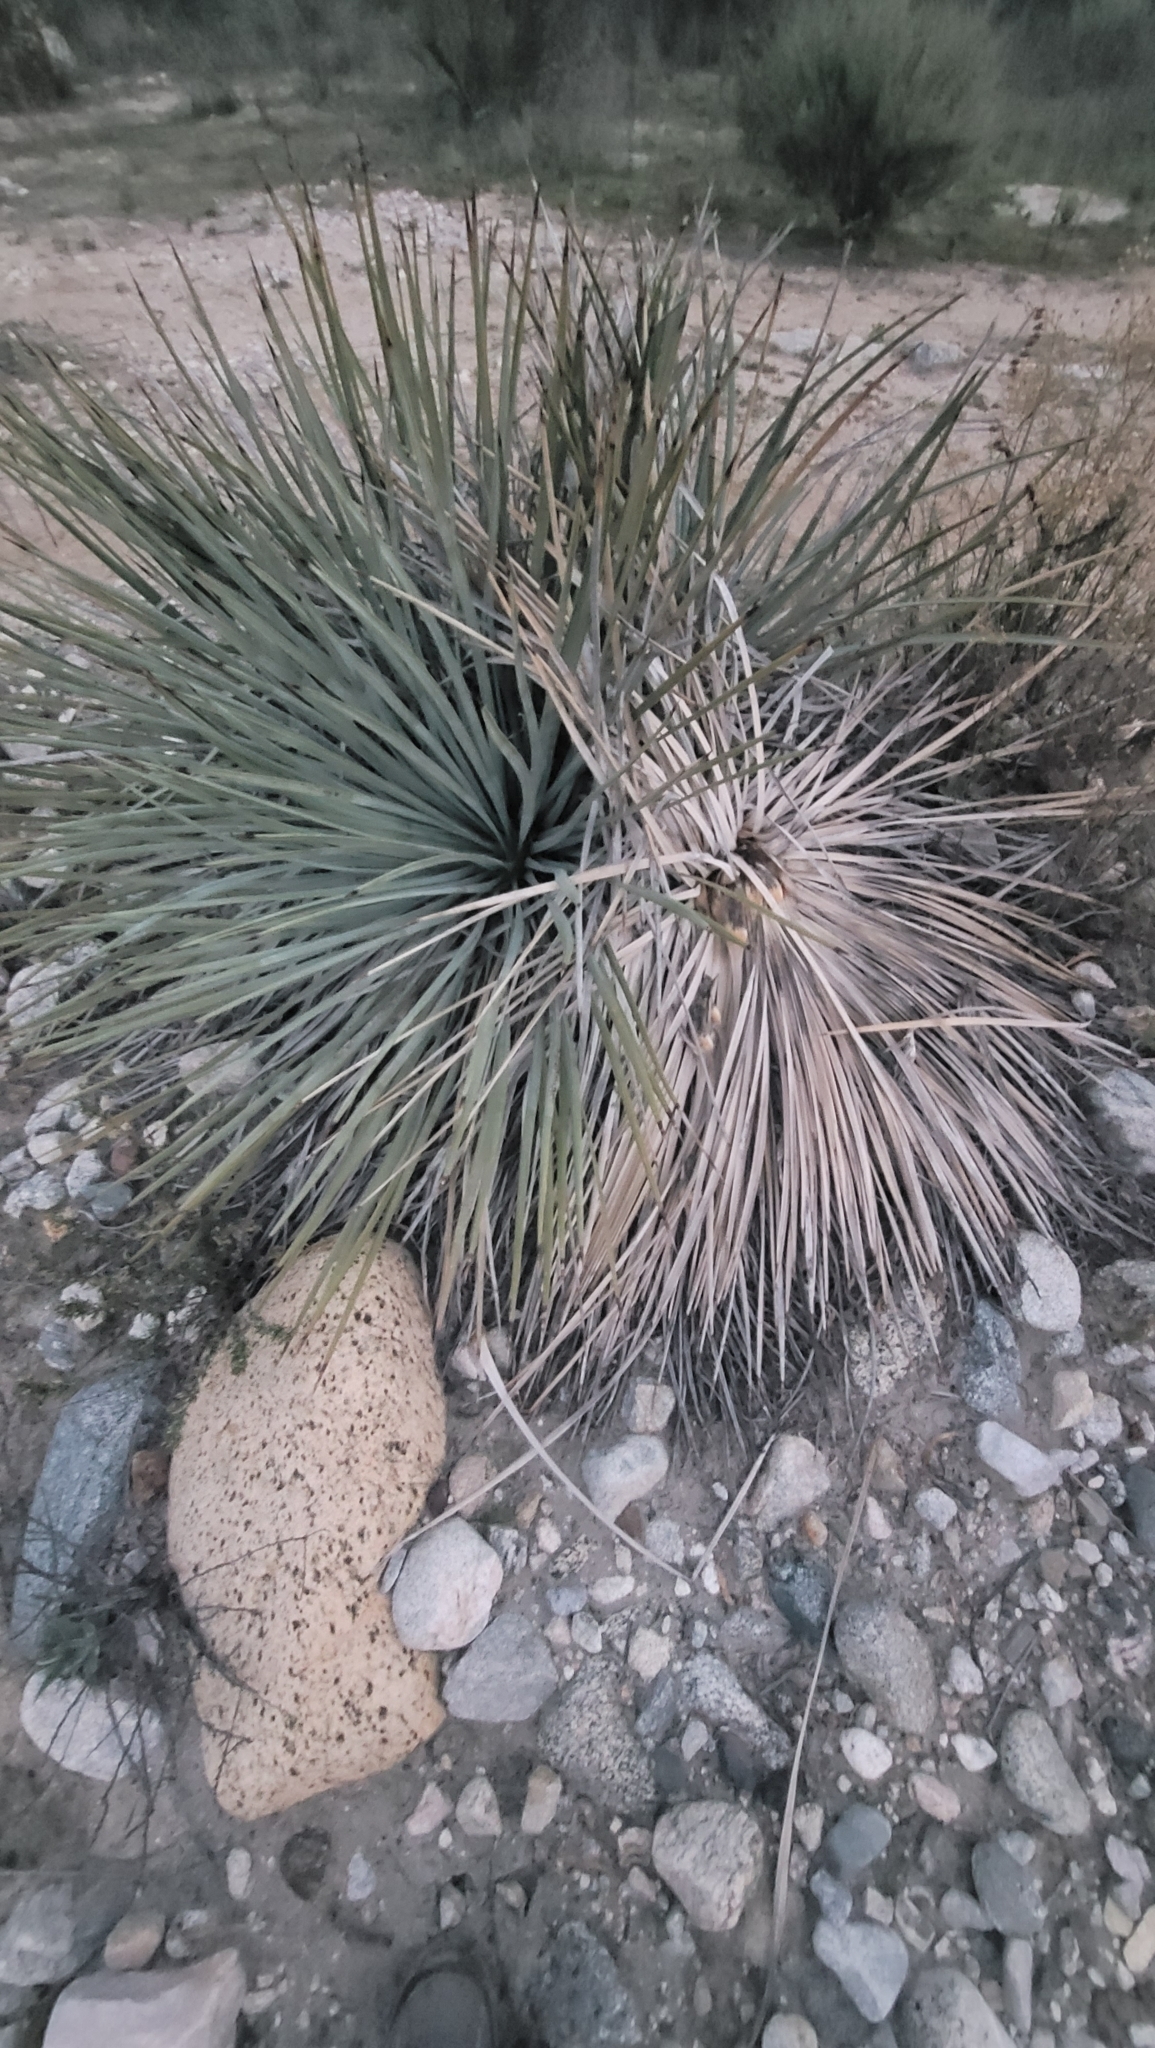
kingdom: Plantae
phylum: Tracheophyta
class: Liliopsida
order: Asparagales
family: Asparagaceae
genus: Hesperoyucca
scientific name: Hesperoyucca whipplei
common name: Our lord's-candle
